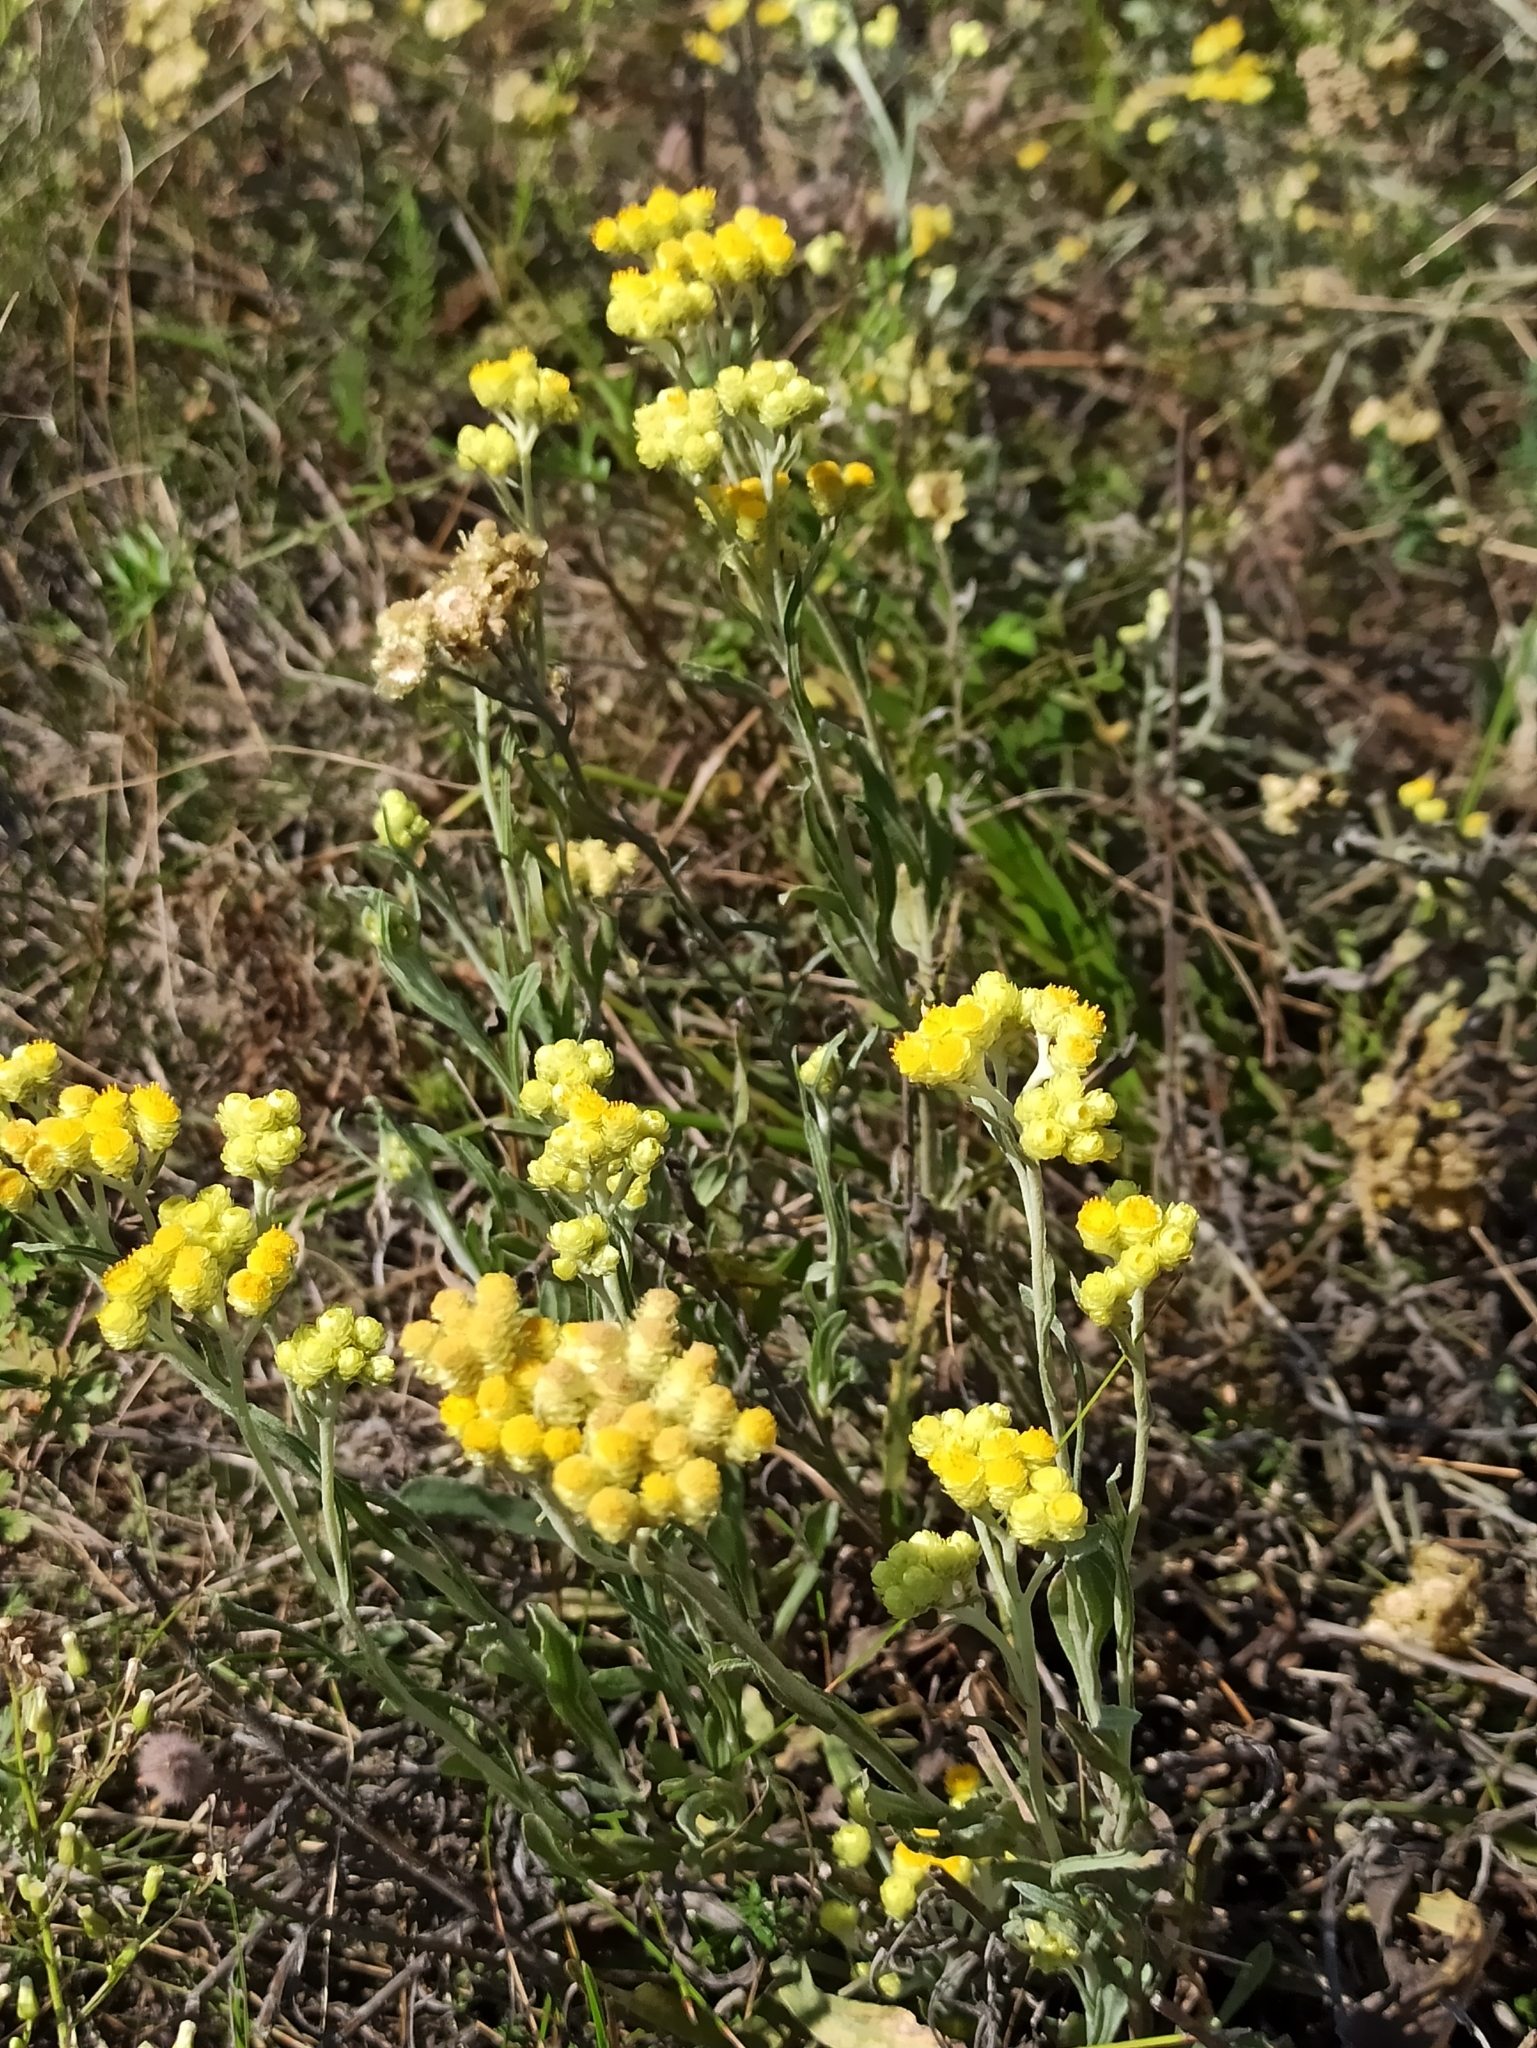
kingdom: Plantae
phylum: Tracheophyta
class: Magnoliopsida
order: Asterales
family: Asteraceae
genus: Helichrysum
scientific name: Helichrysum arenarium
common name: Strawflower
